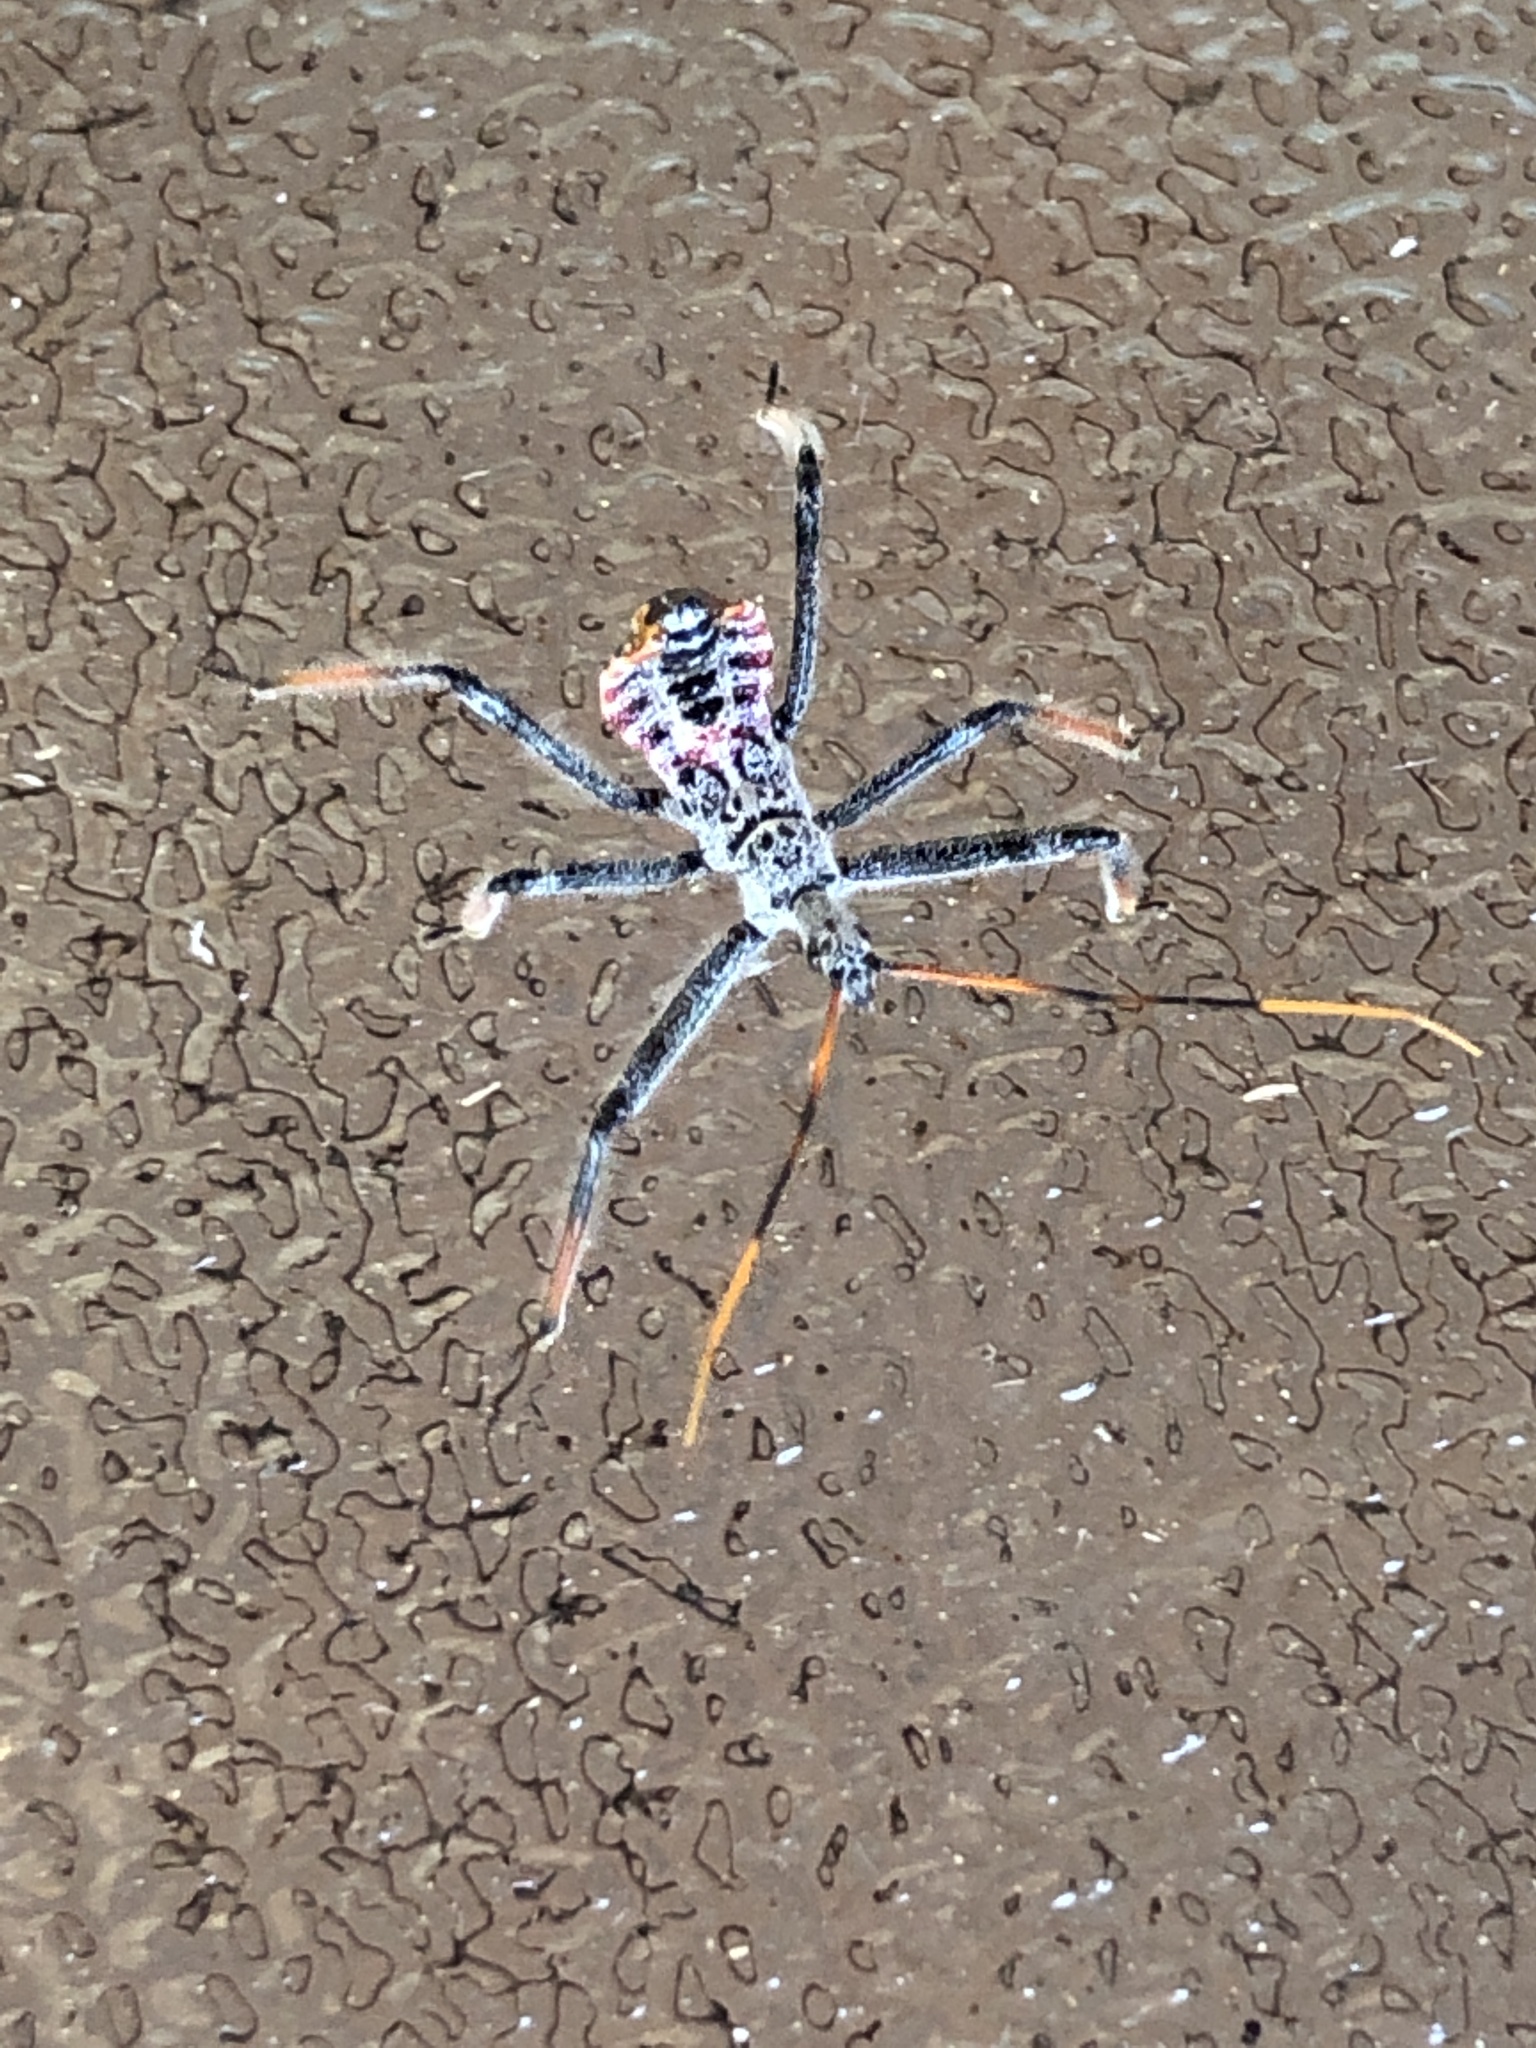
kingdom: Animalia
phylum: Arthropoda
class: Insecta
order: Hemiptera
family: Reduviidae
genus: Arilus
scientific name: Arilus cristatus
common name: North american wheel bug
